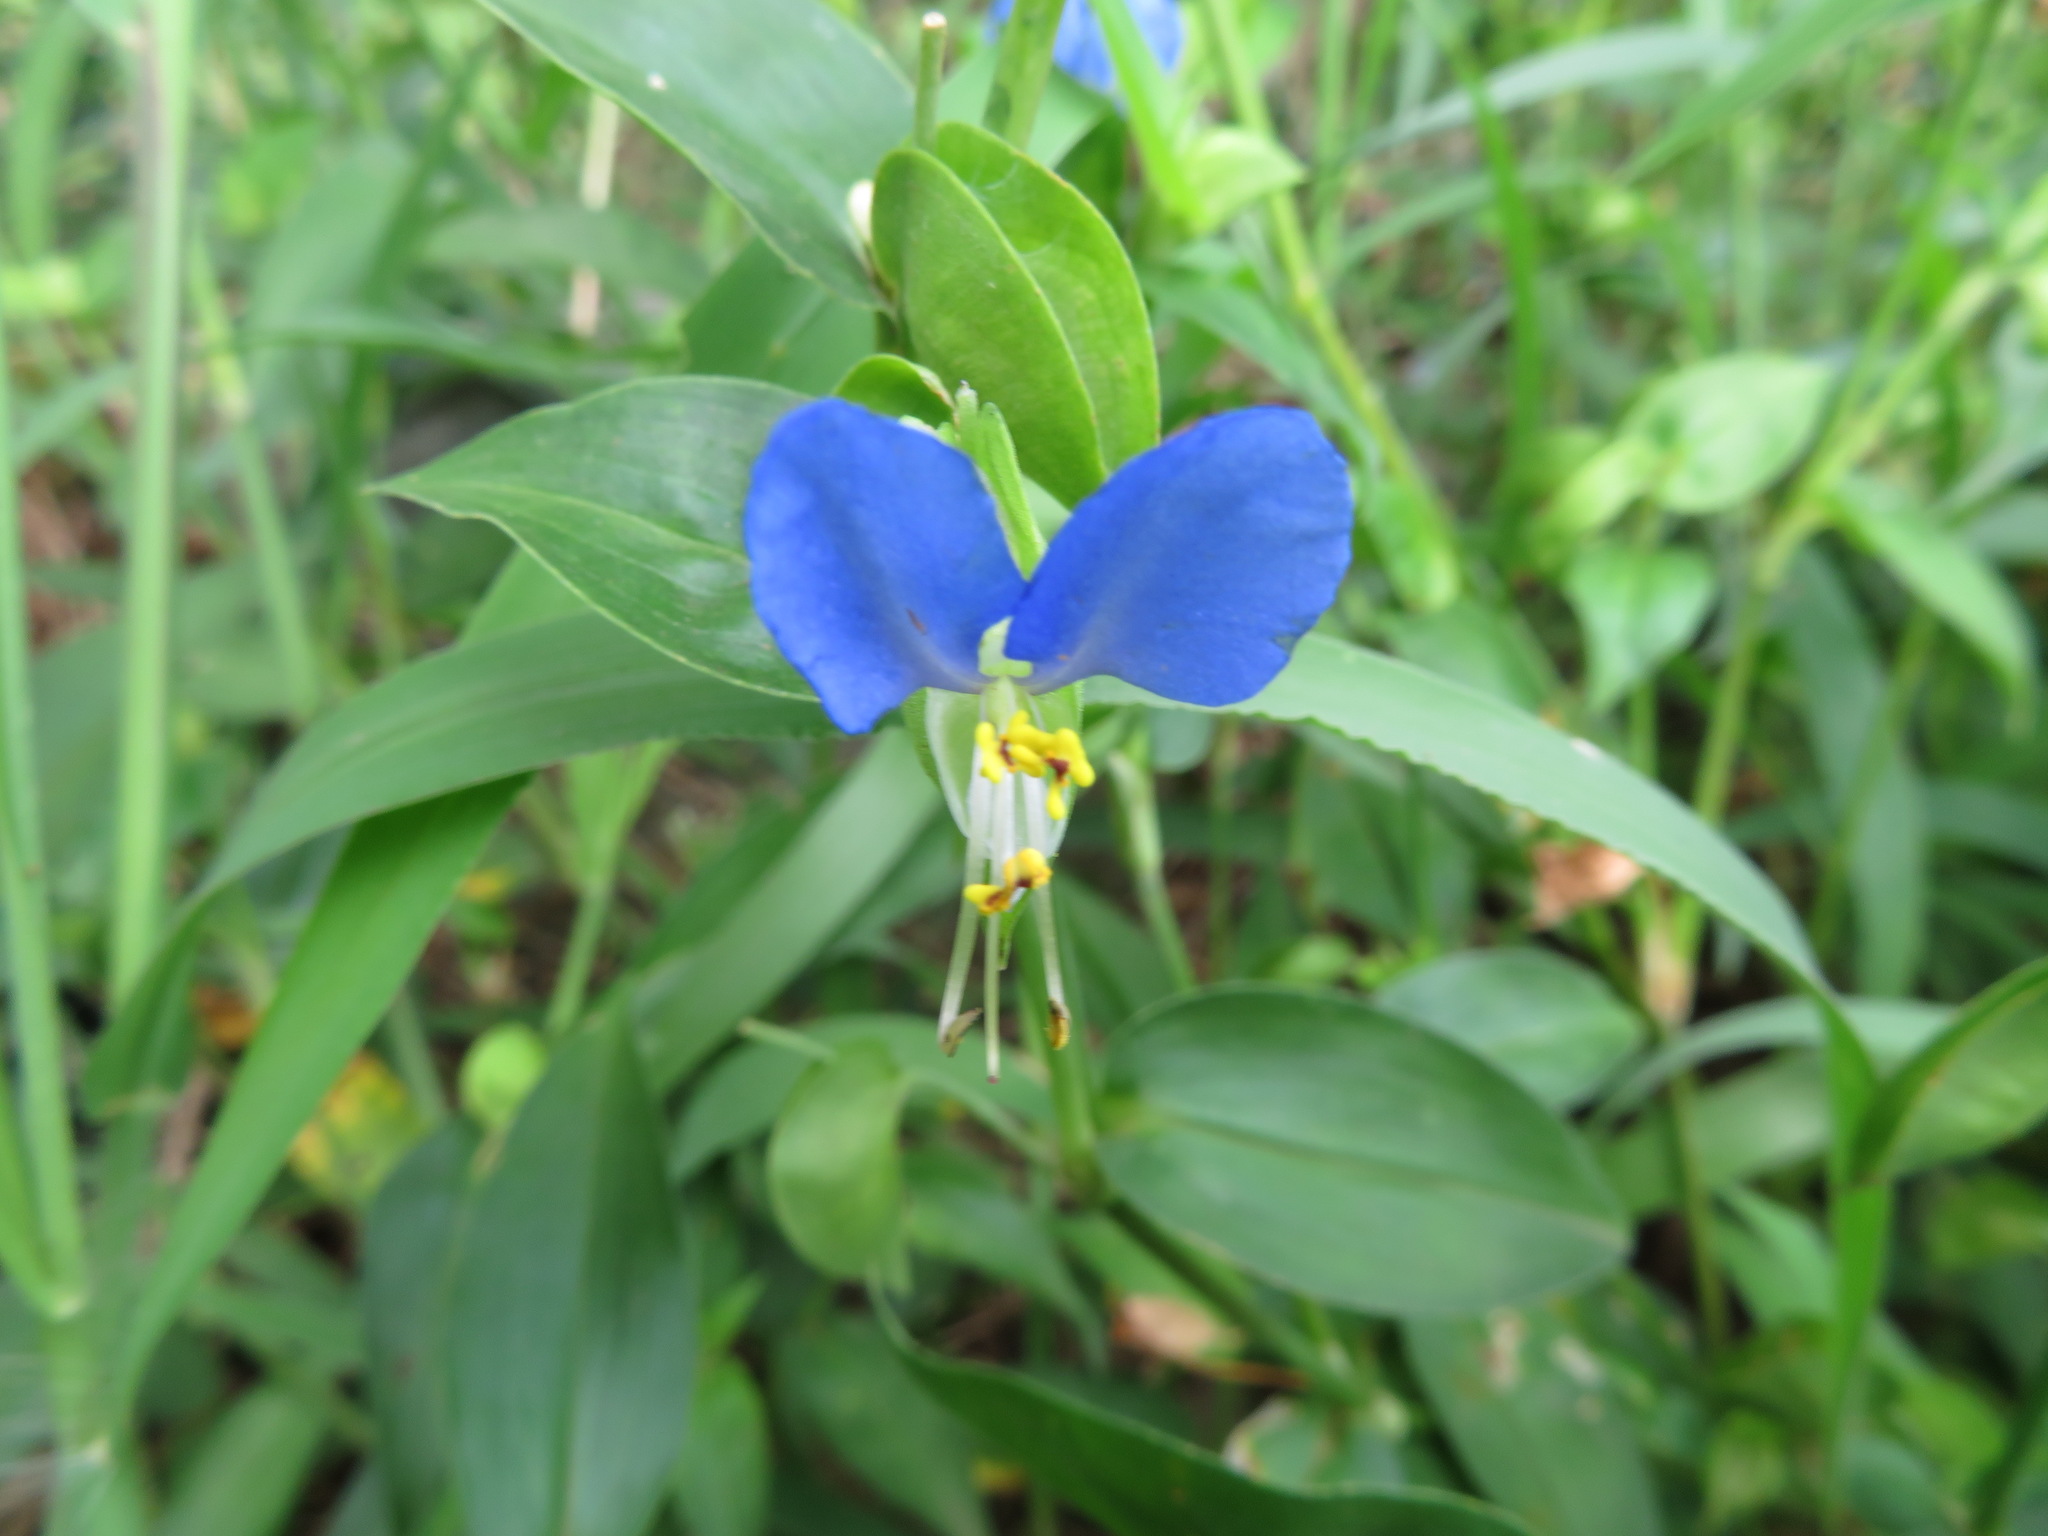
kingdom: Plantae
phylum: Tracheophyta
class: Liliopsida
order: Commelinales
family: Commelinaceae
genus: Commelina
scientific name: Commelina communis
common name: Asiatic dayflower
